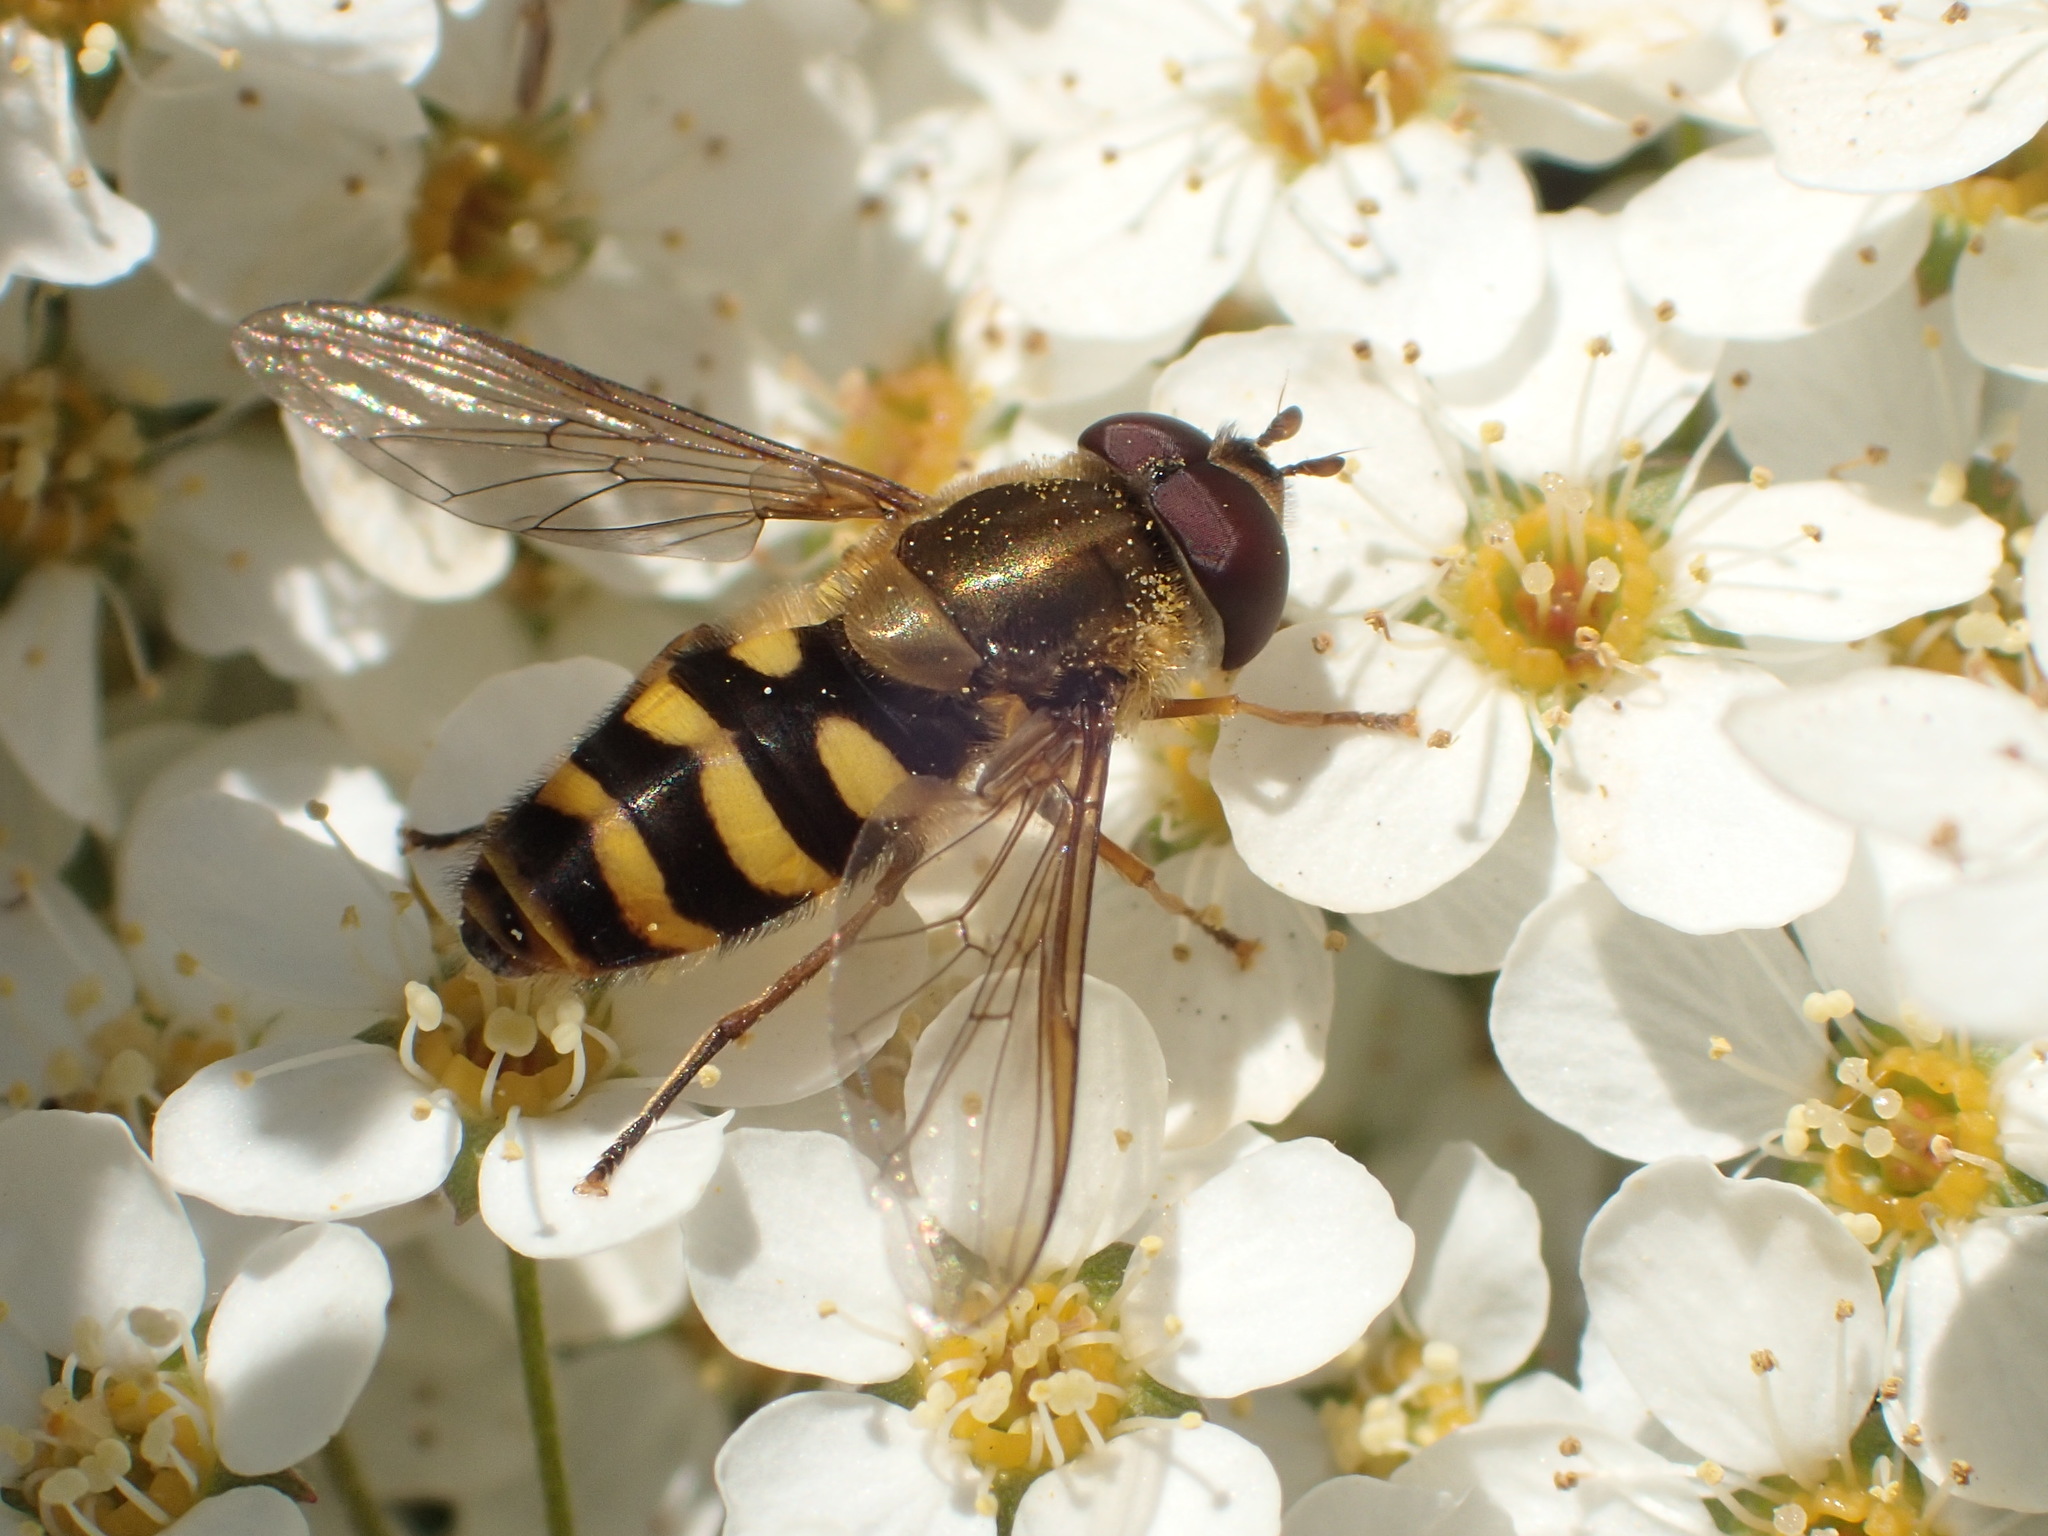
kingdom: Animalia
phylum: Arthropoda
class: Insecta
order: Diptera
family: Syrphidae
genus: Syrphus
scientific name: Syrphus
